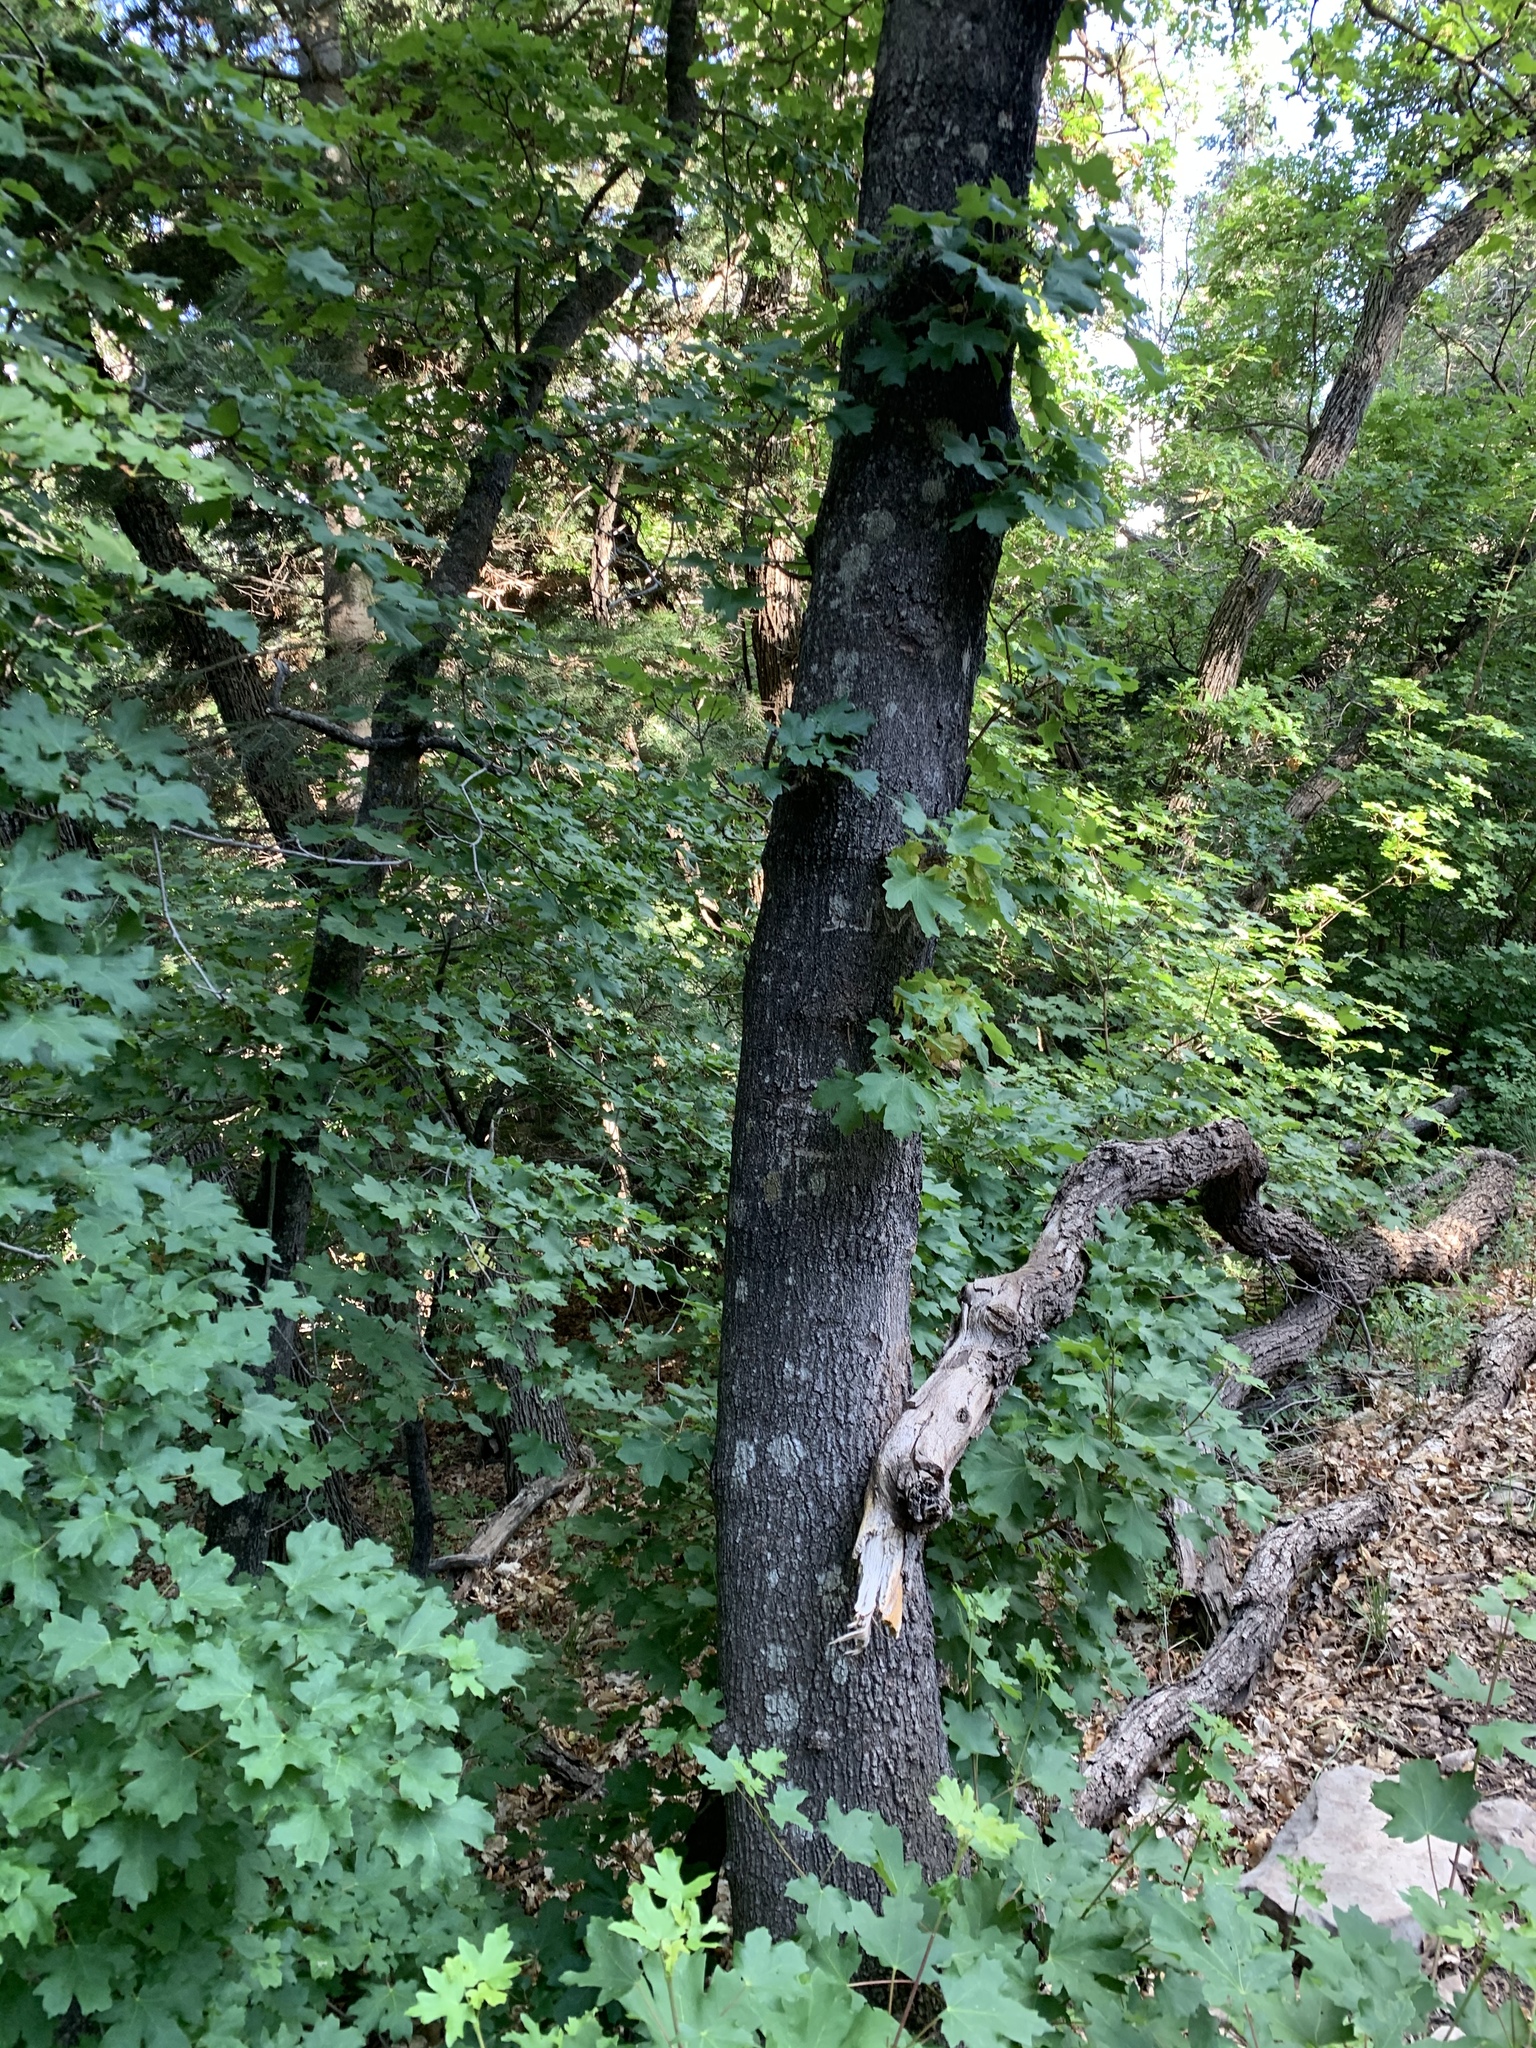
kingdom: Plantae
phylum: Tracheophyta
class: Magnoliopsida
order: Sapindales
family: Sapindaceae
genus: Acer
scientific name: Acer grandidentatum
